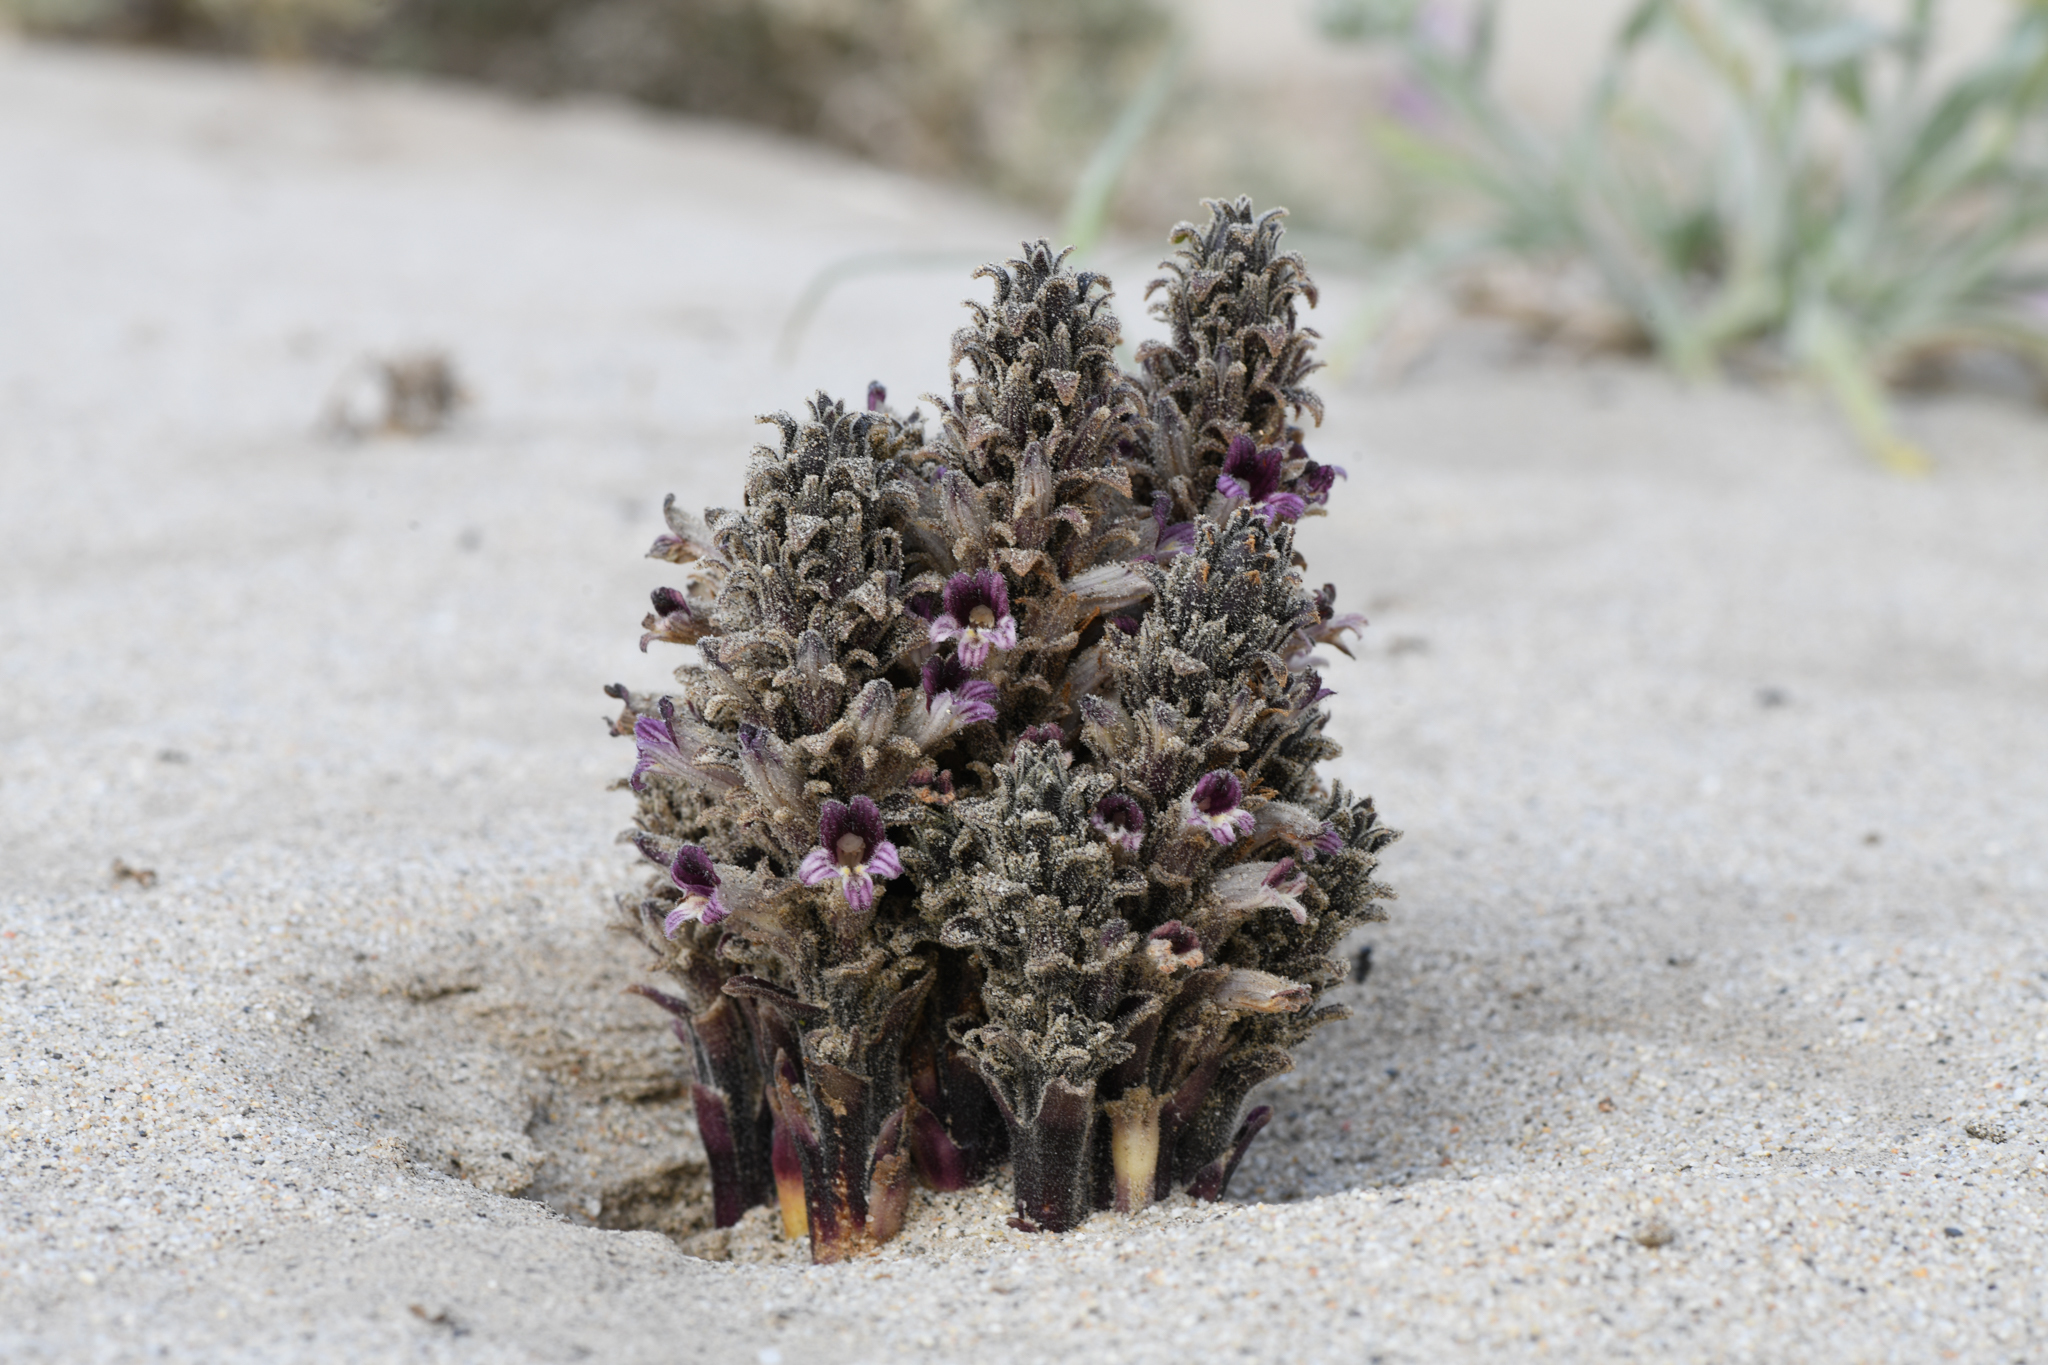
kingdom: Plantae
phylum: Tracheophyta
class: Magnoliopsida
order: Lamiales
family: Orobanchaceae
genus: Aphyllon
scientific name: Aphyllon cooperi
